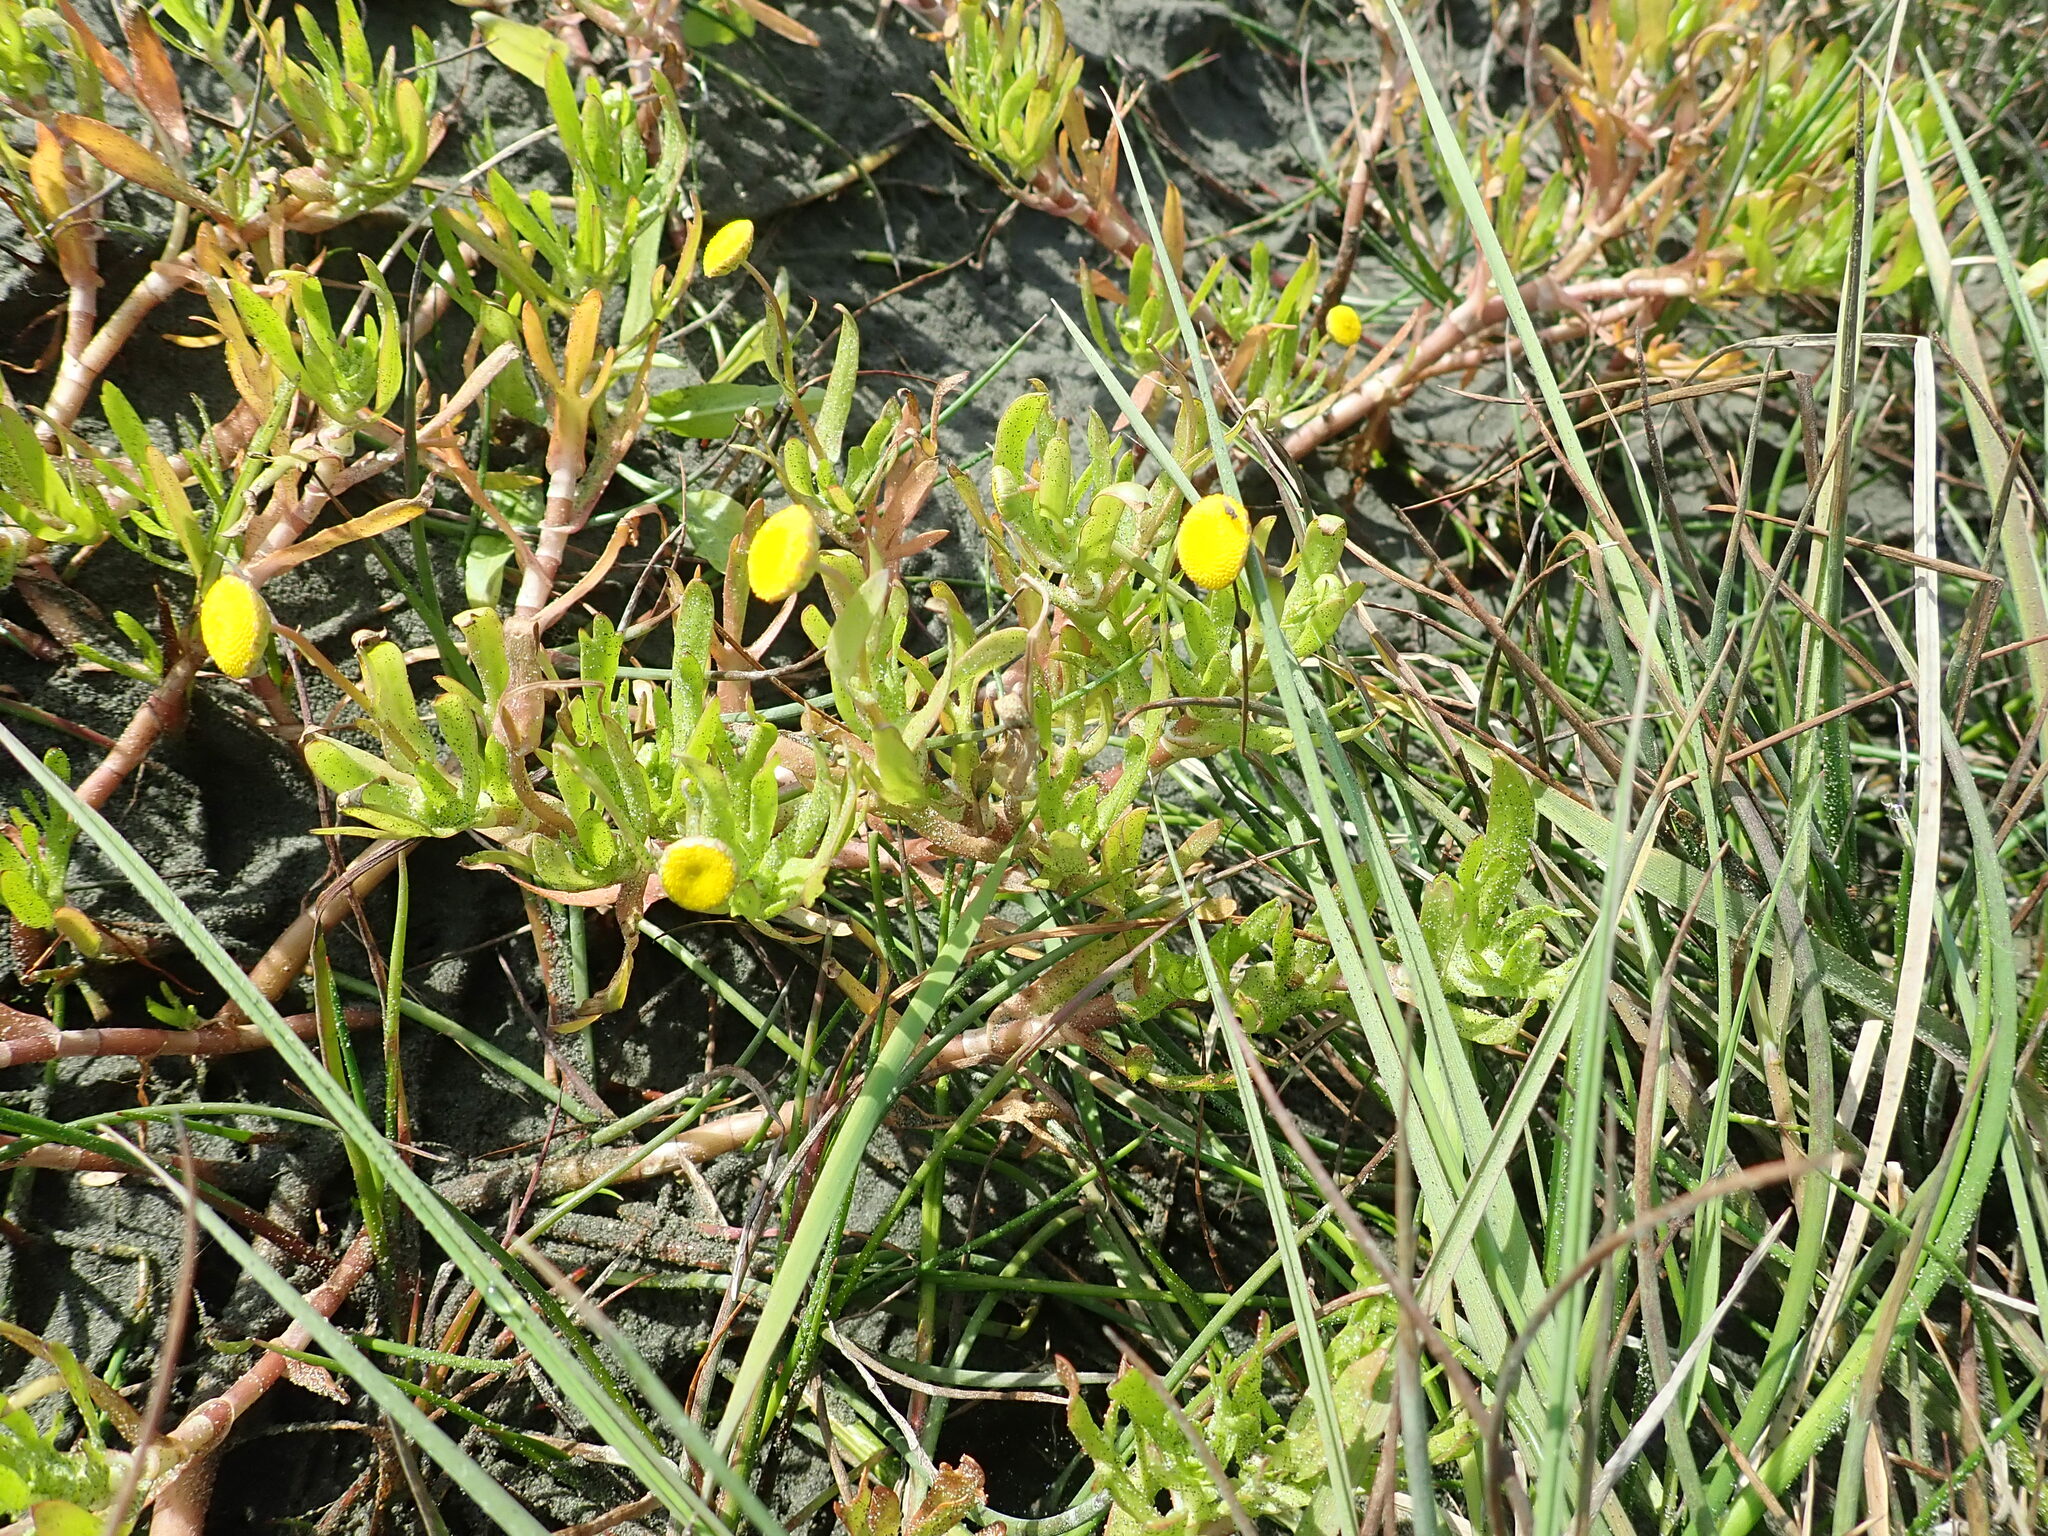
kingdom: Plantae
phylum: Tracheophyta
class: Magnoliopsida
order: Asterales
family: Asteraceae
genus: Cotula
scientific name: Cotula coronopifolia
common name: Buttonweed
